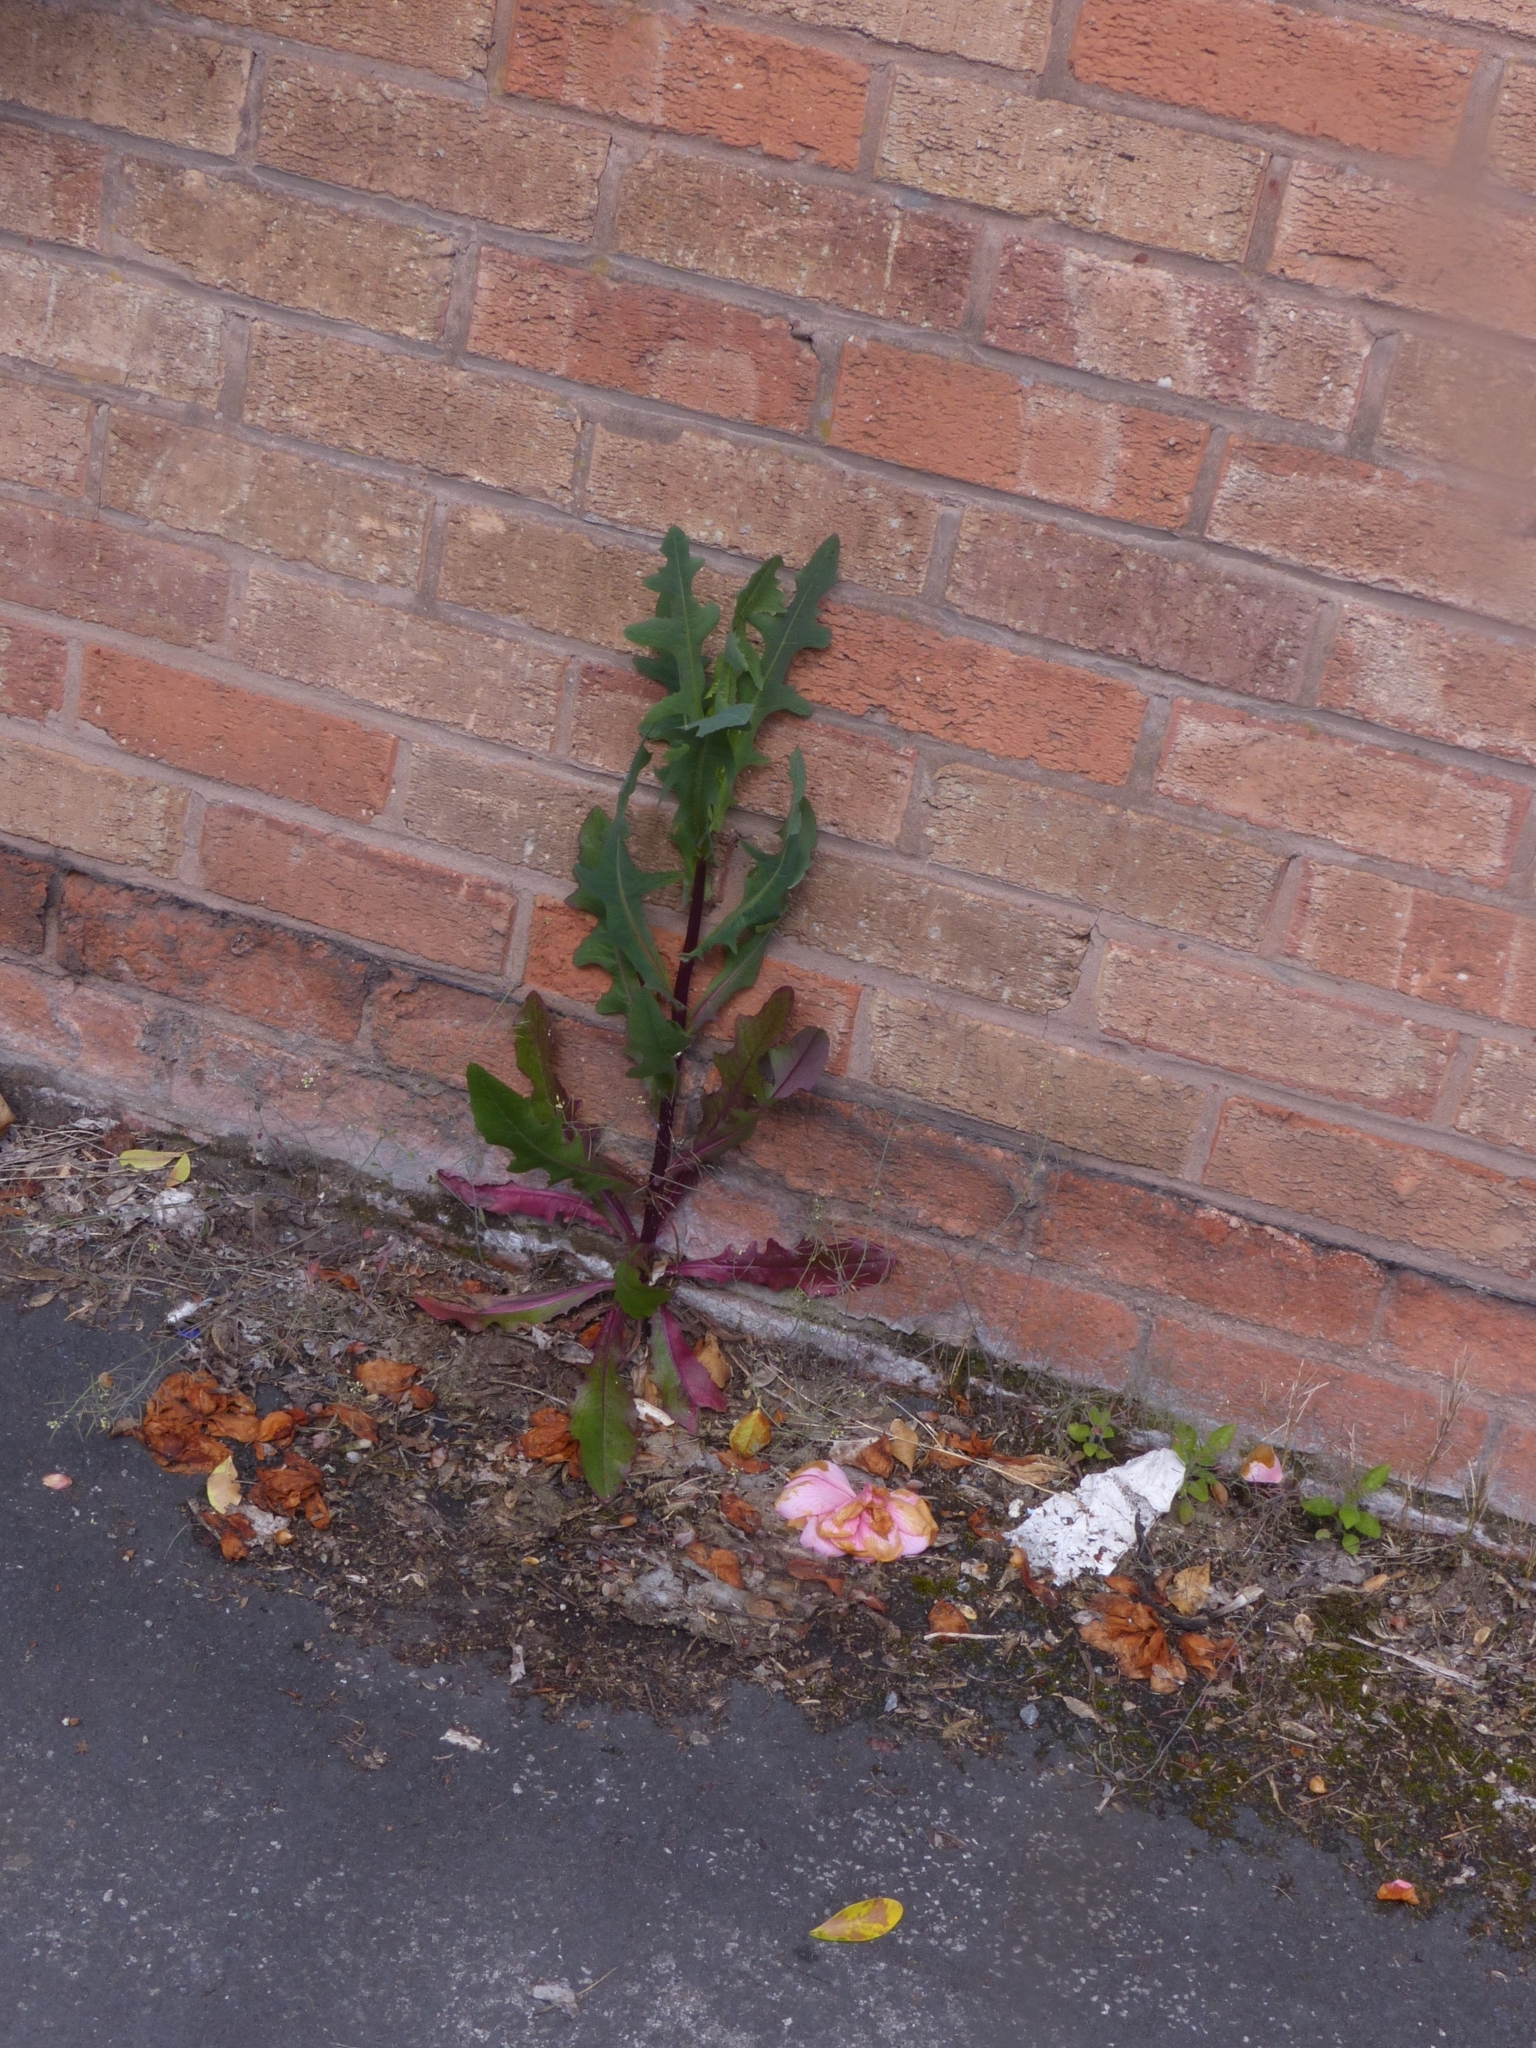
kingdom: Plantae
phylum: Tracheophyta
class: Magnoliopsida
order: Asterales
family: Asteraceae
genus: Lactuca
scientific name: Lactuca virosa
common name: Great lettuce
